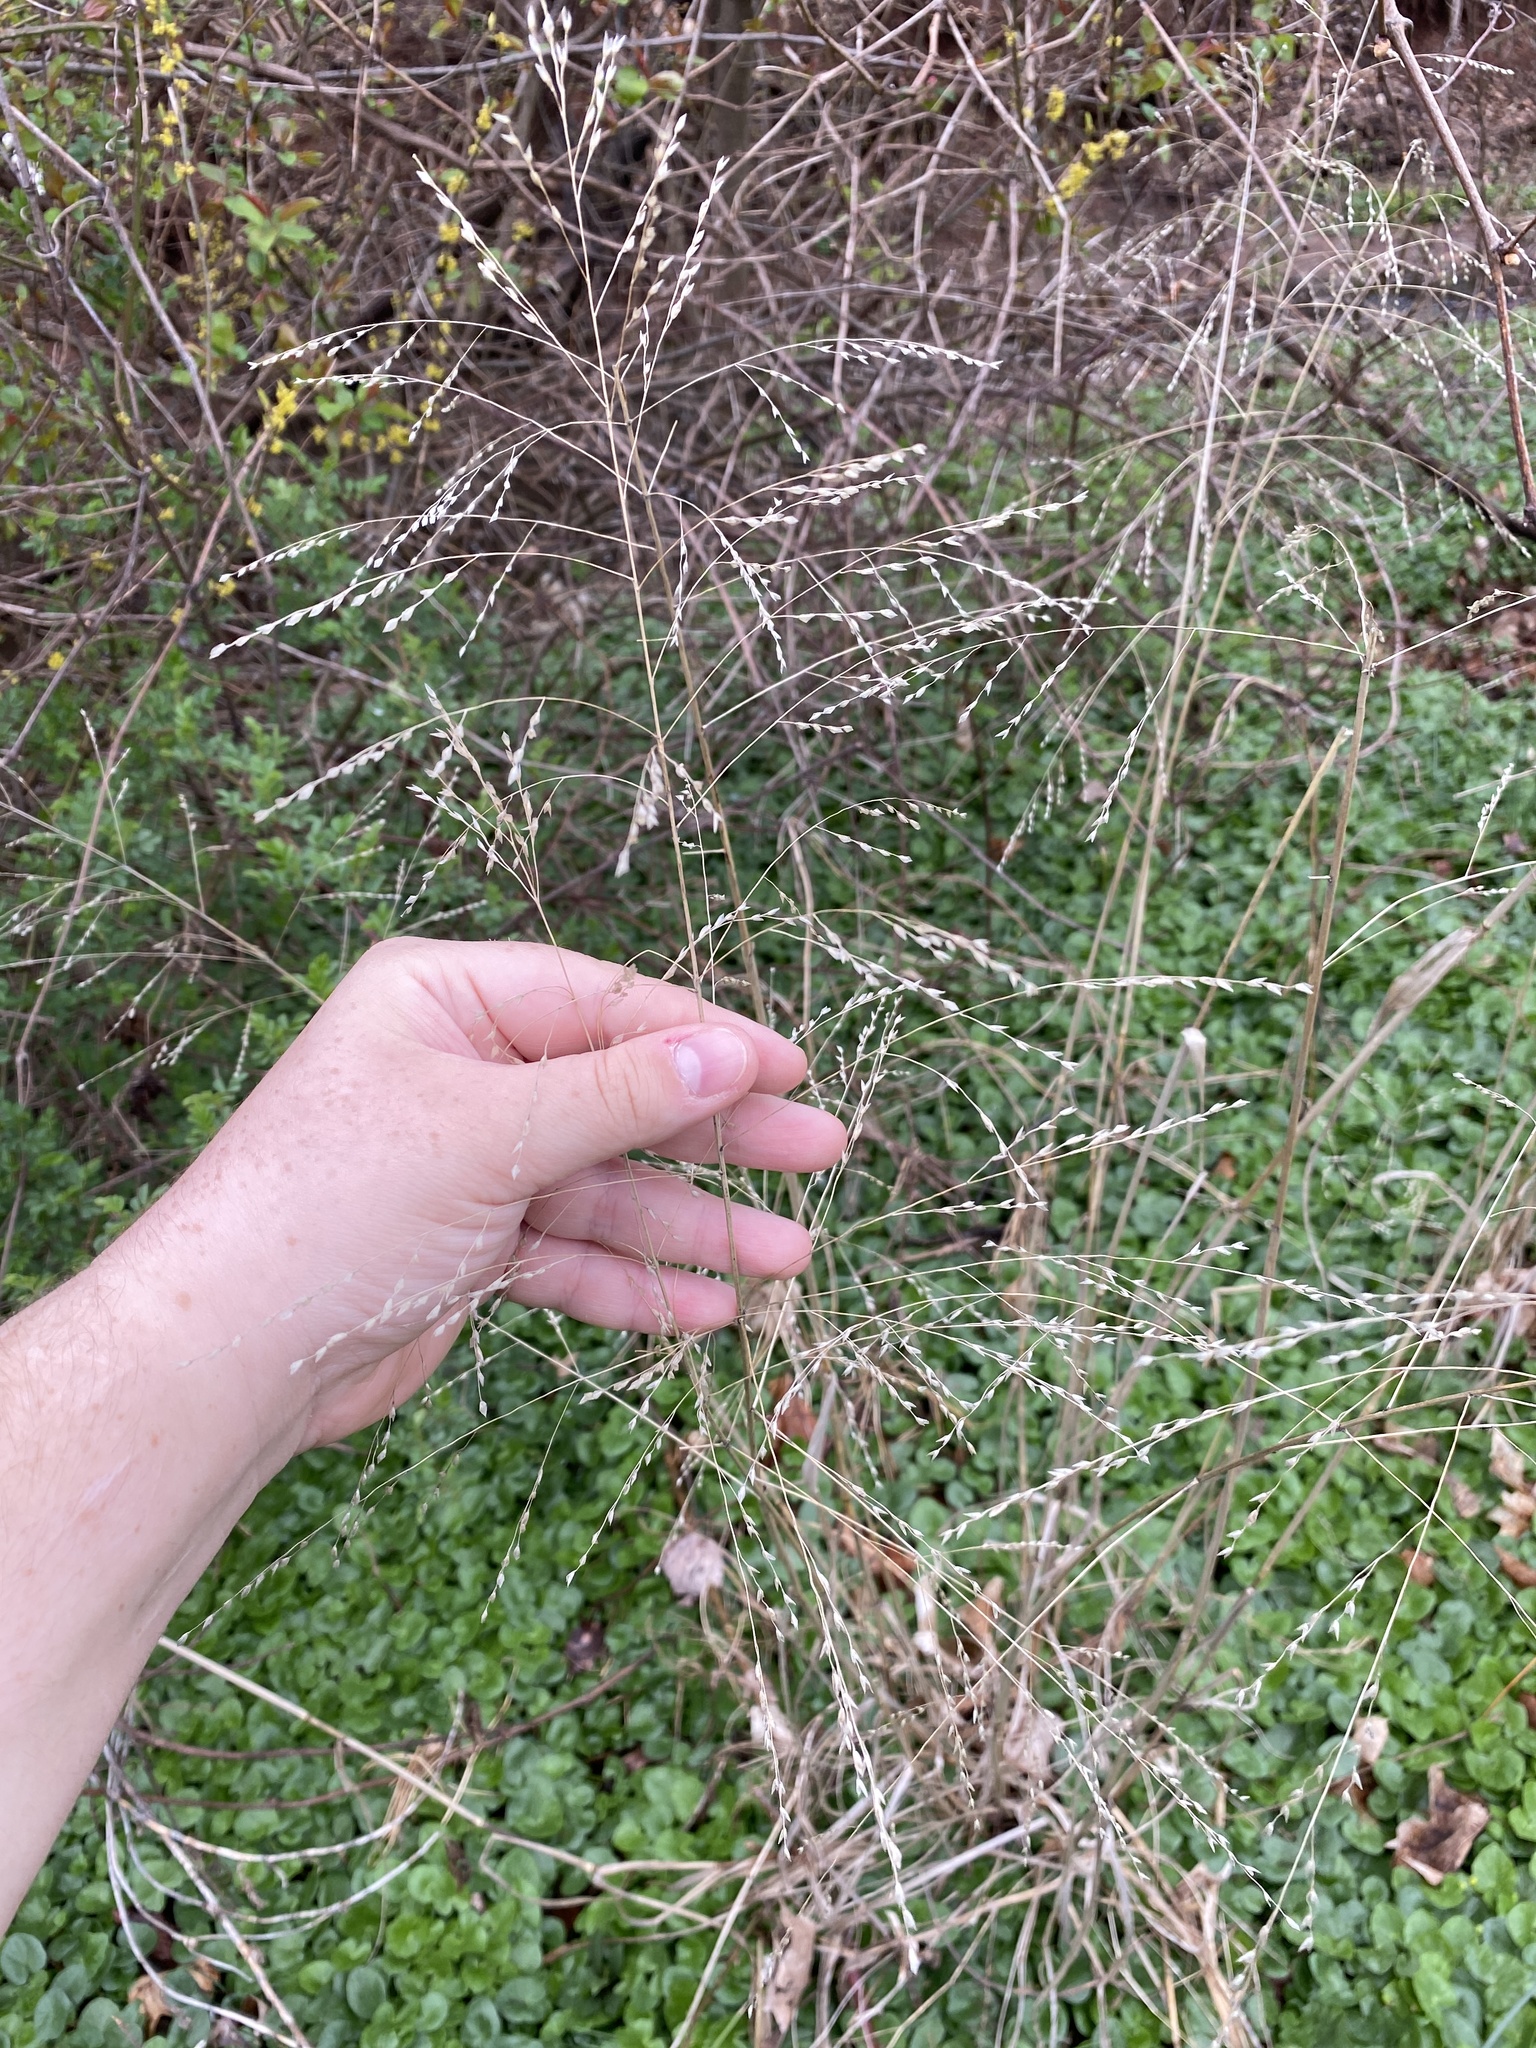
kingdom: Plantae
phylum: Tracheophyta
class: Liliopsida
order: Poales
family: Poaceae
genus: Tridens
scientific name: Tridens flavus
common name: Purpletop
